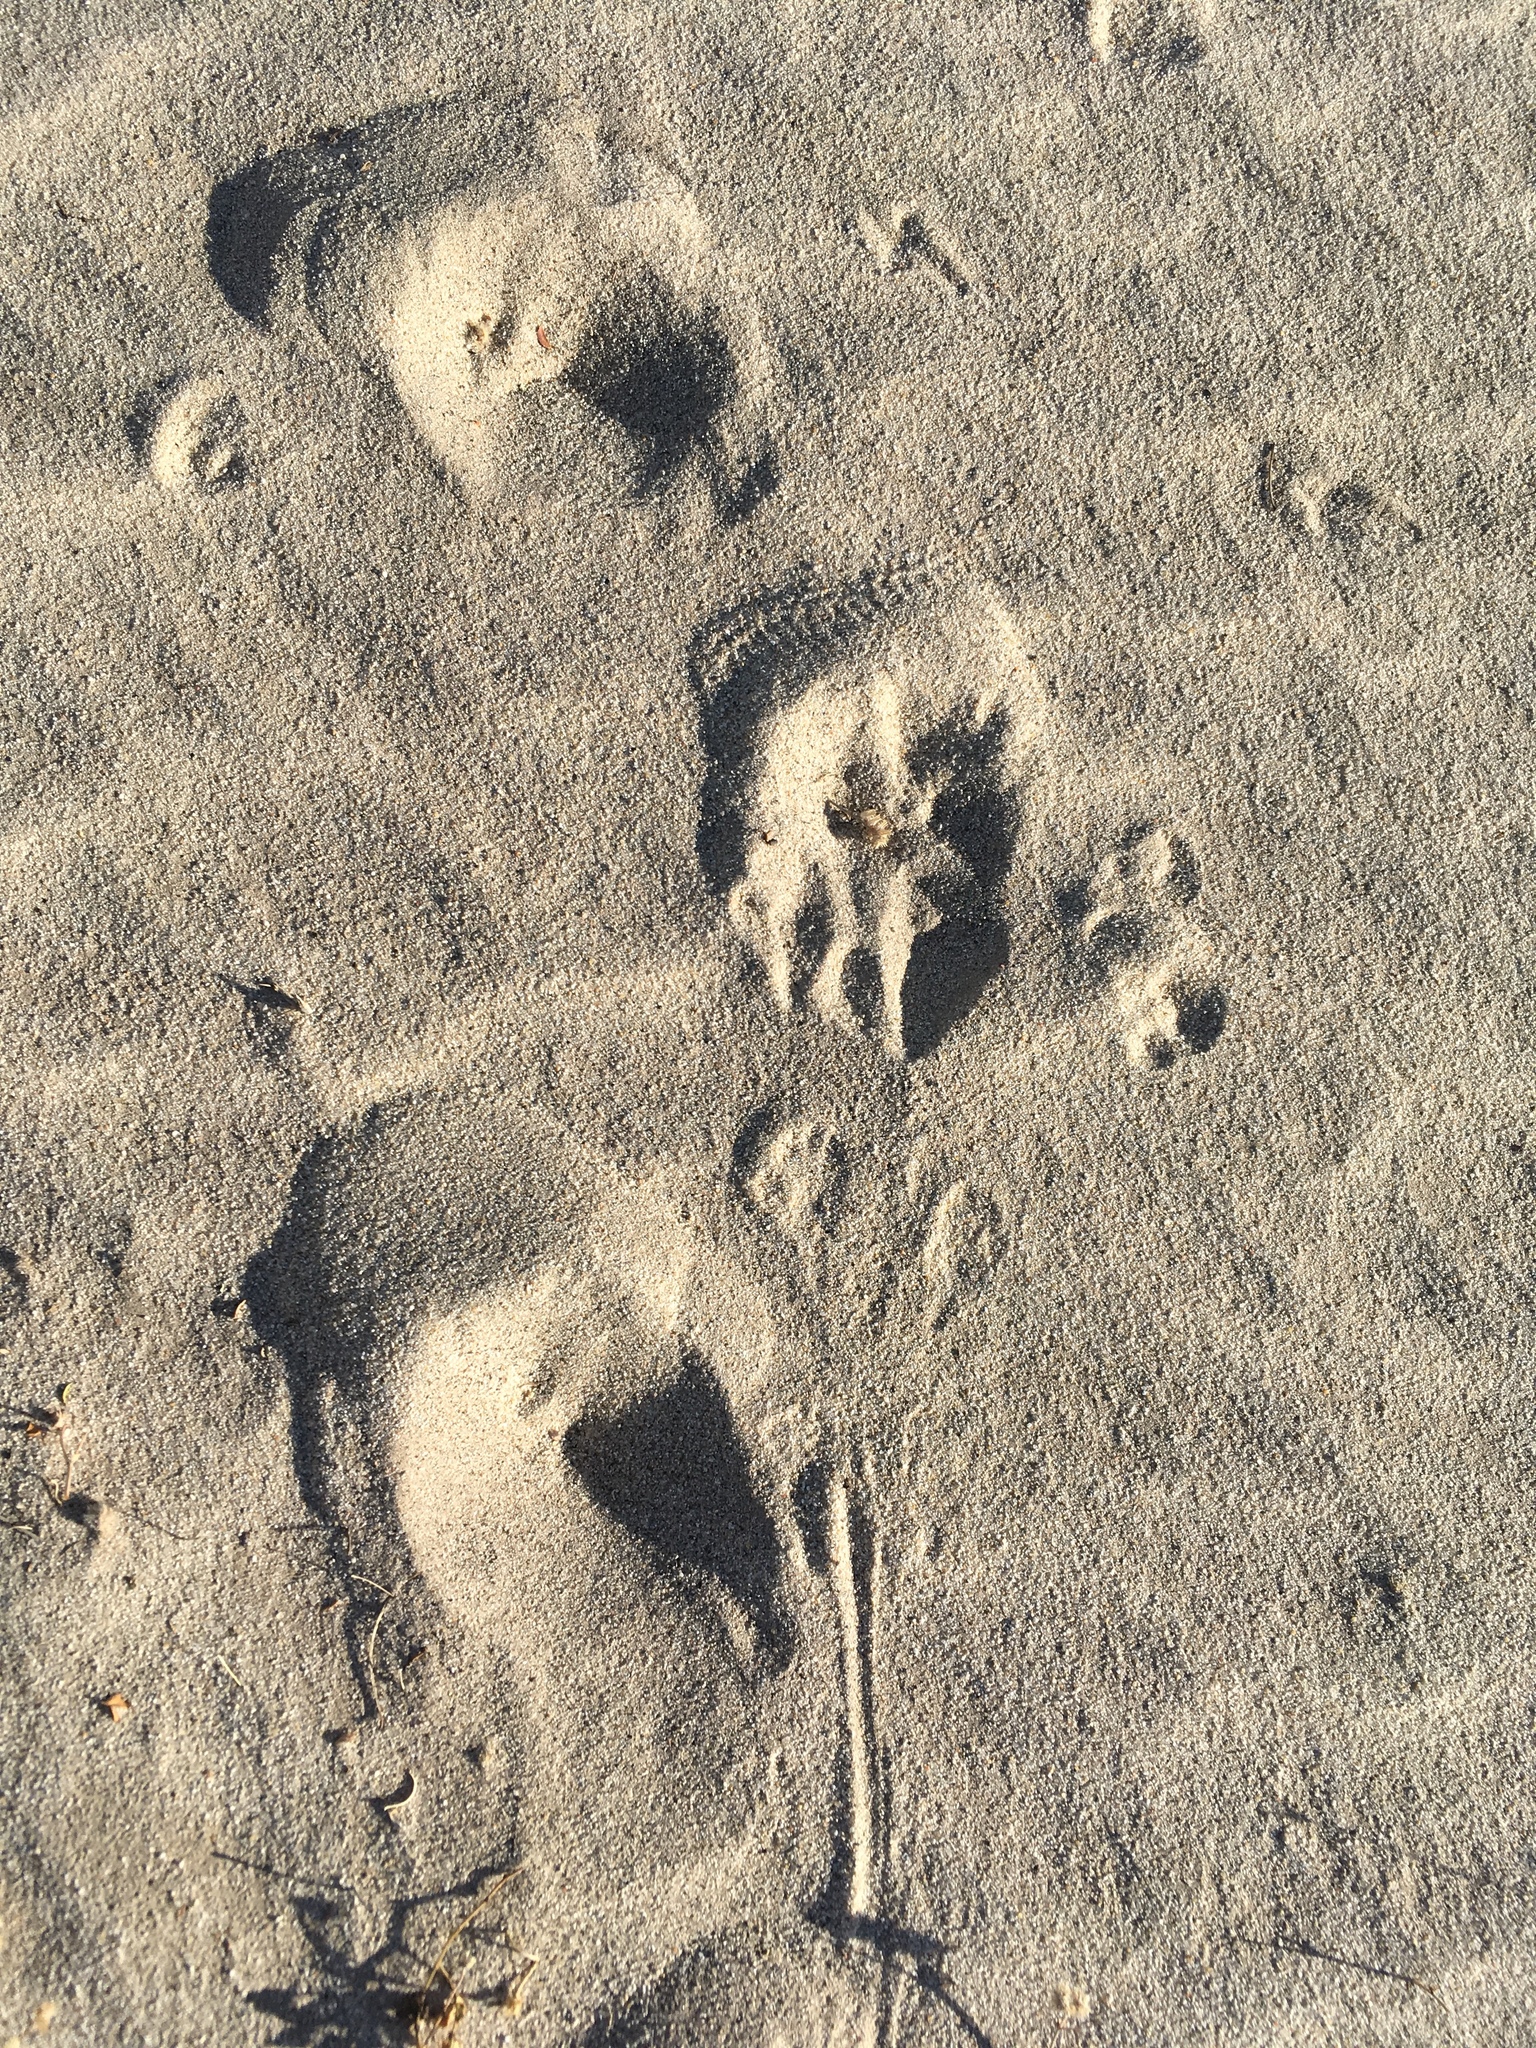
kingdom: Animalia
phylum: Chordata
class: Mammalia
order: Carnivora
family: Mustelidae
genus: Taxidea
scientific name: Taxidea taxus
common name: American badger
